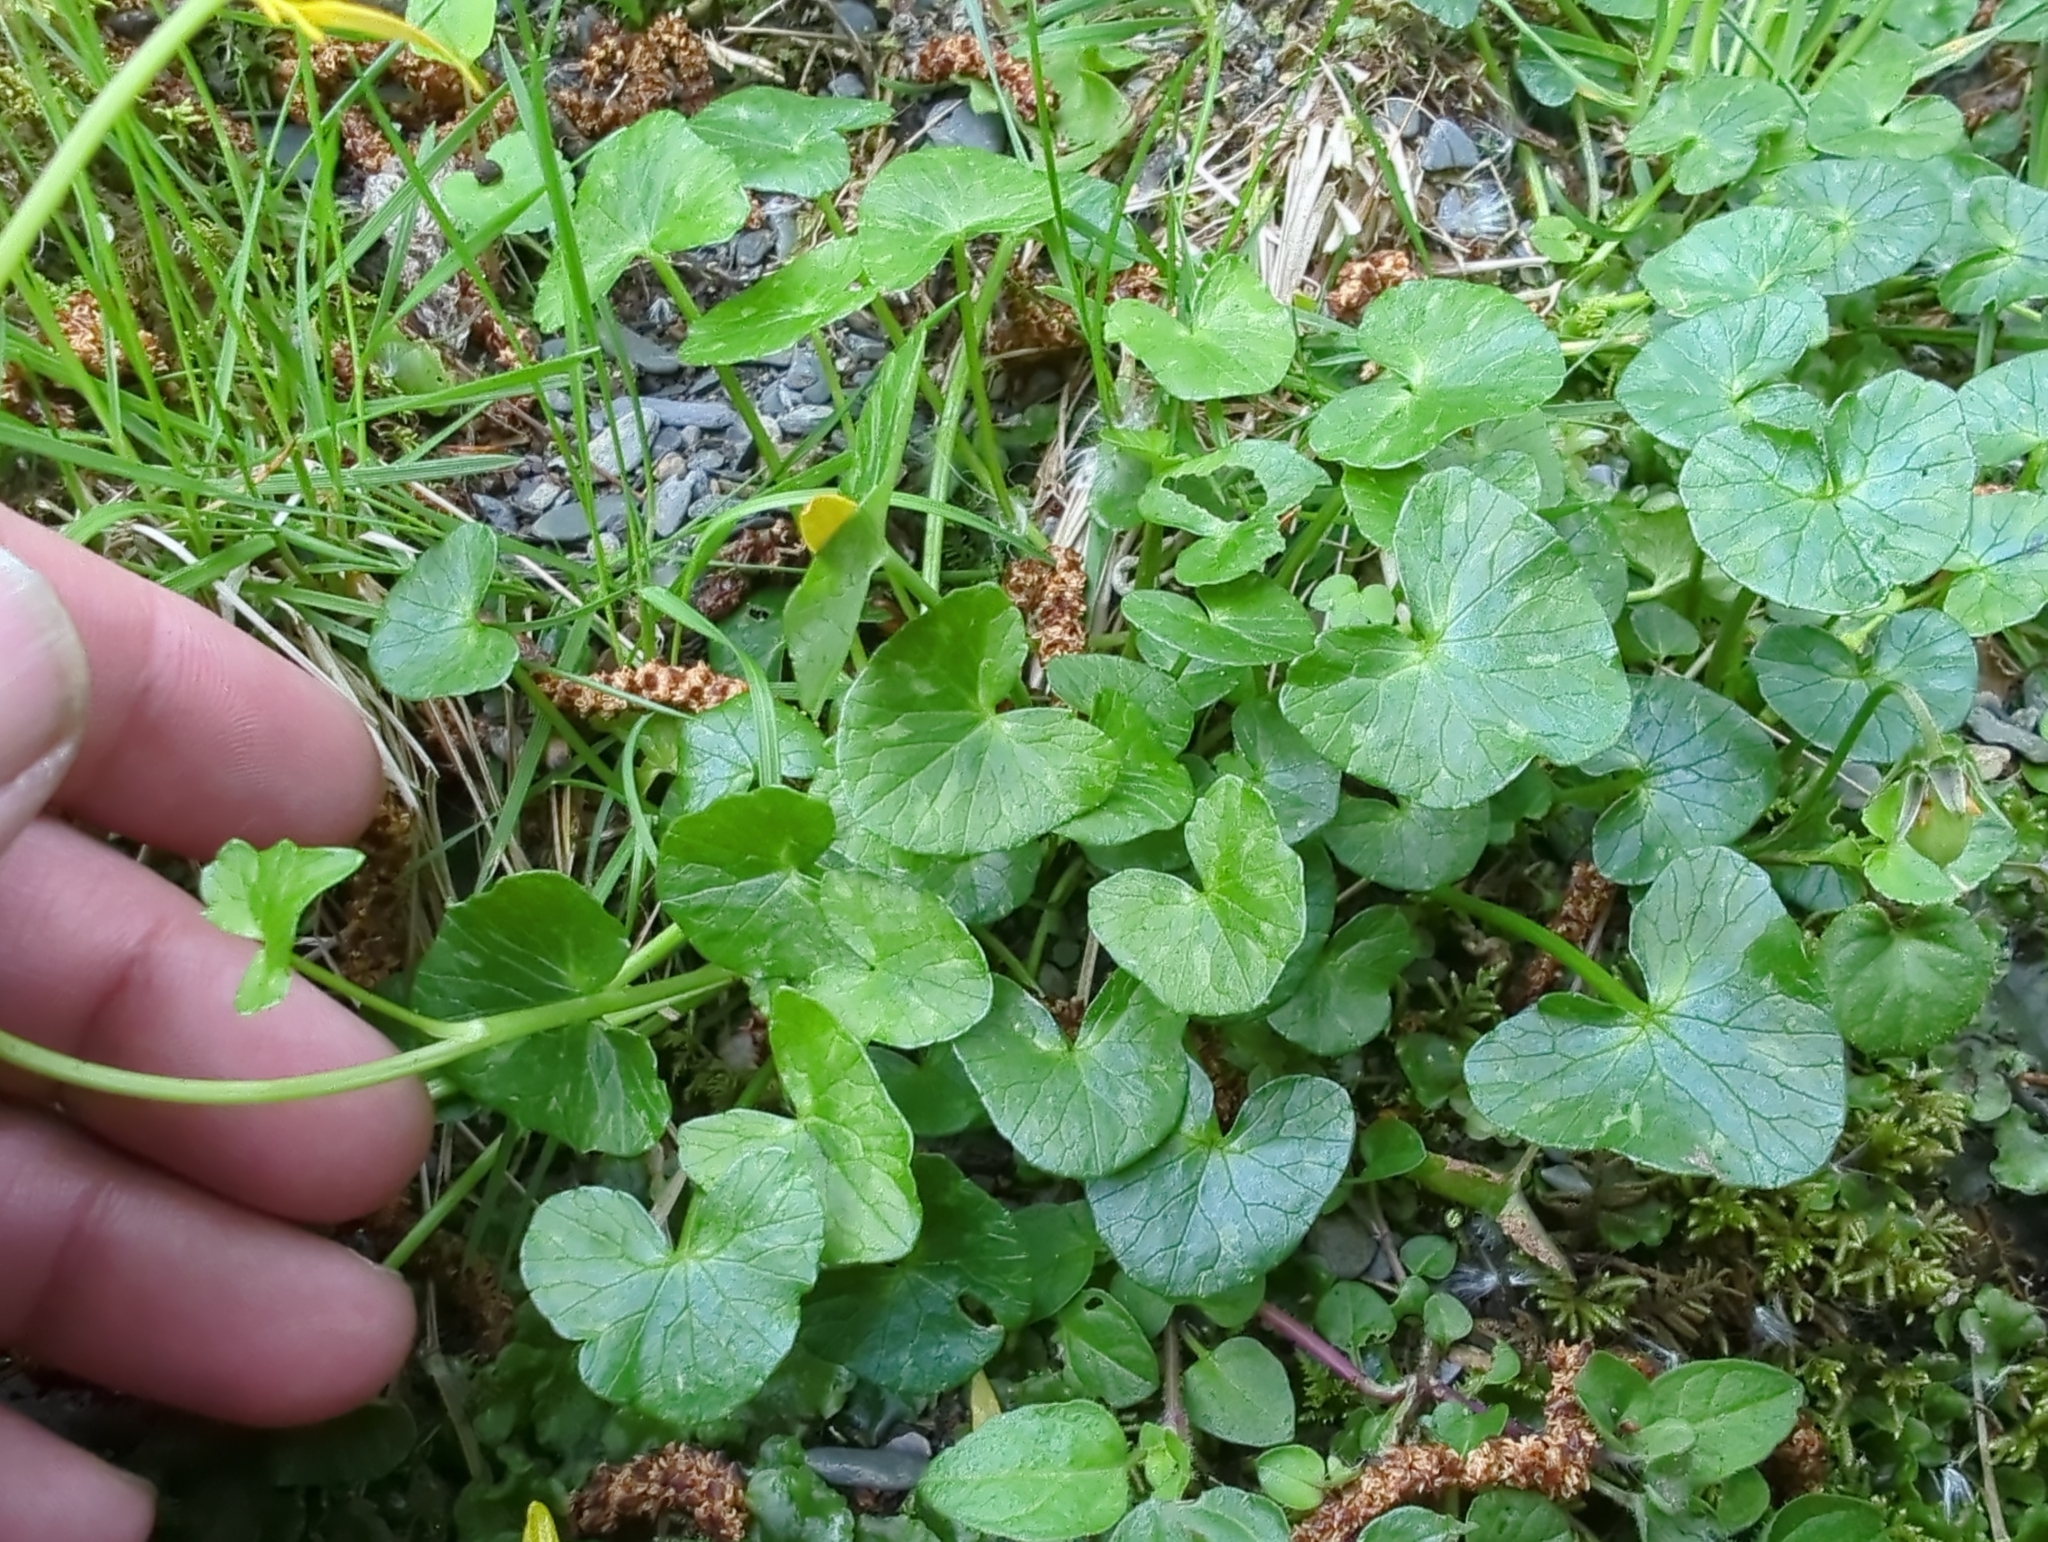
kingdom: Plantae
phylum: Tracheophyta
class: Magnoliopsida
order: Ranunculales
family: Ranunculaceae
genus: Ficaria
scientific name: Ficaria verna
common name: Lesser celandine
